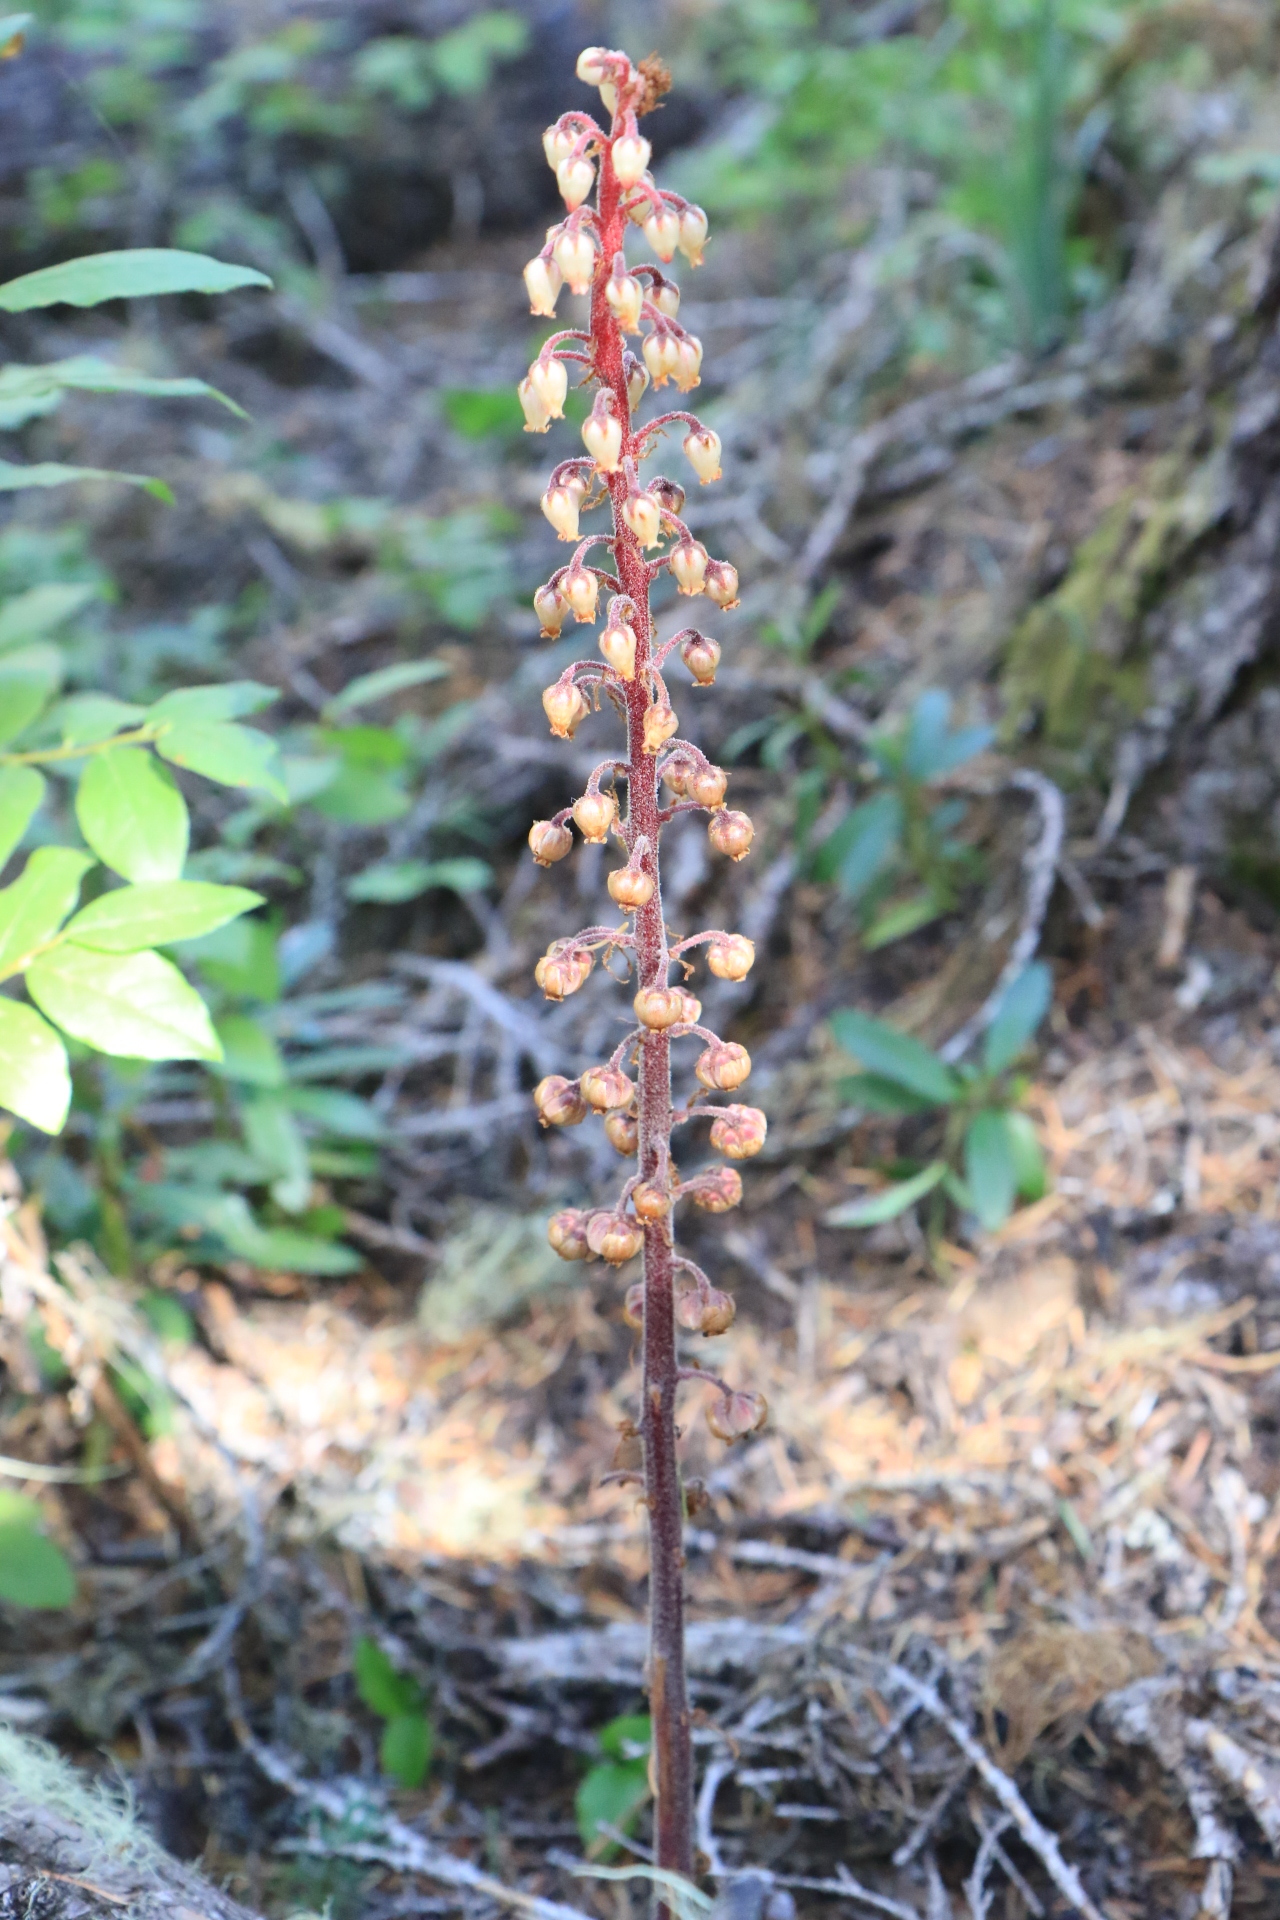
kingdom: Plantae
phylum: Tracheophyta
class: Magnoliopsida
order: Ericales
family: Ericaceae
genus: Pterospora
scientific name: Pterospora andromedea
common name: Giant bird's-nest
